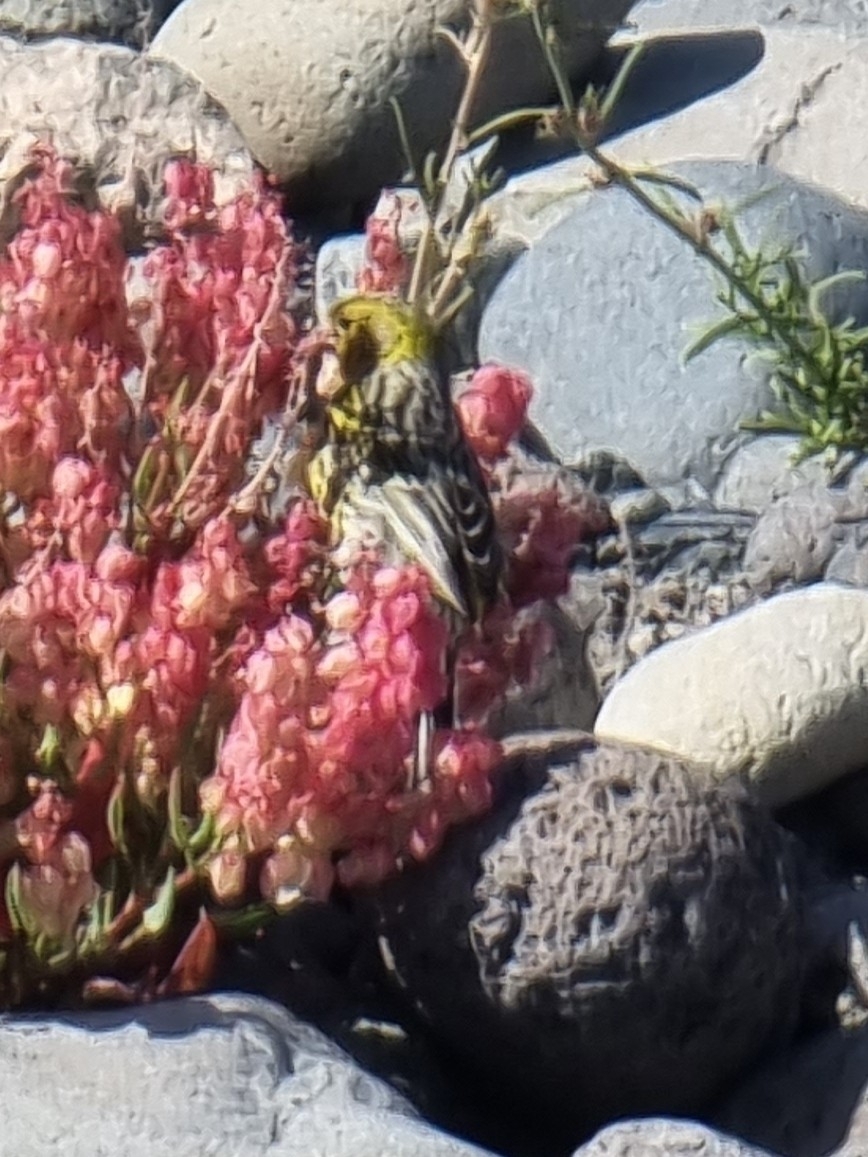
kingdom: Animalia
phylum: Chordata
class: Aves
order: Passeriformes
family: Fringillidae
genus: Serinus
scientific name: Serinus canaria
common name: Atlantic canary
